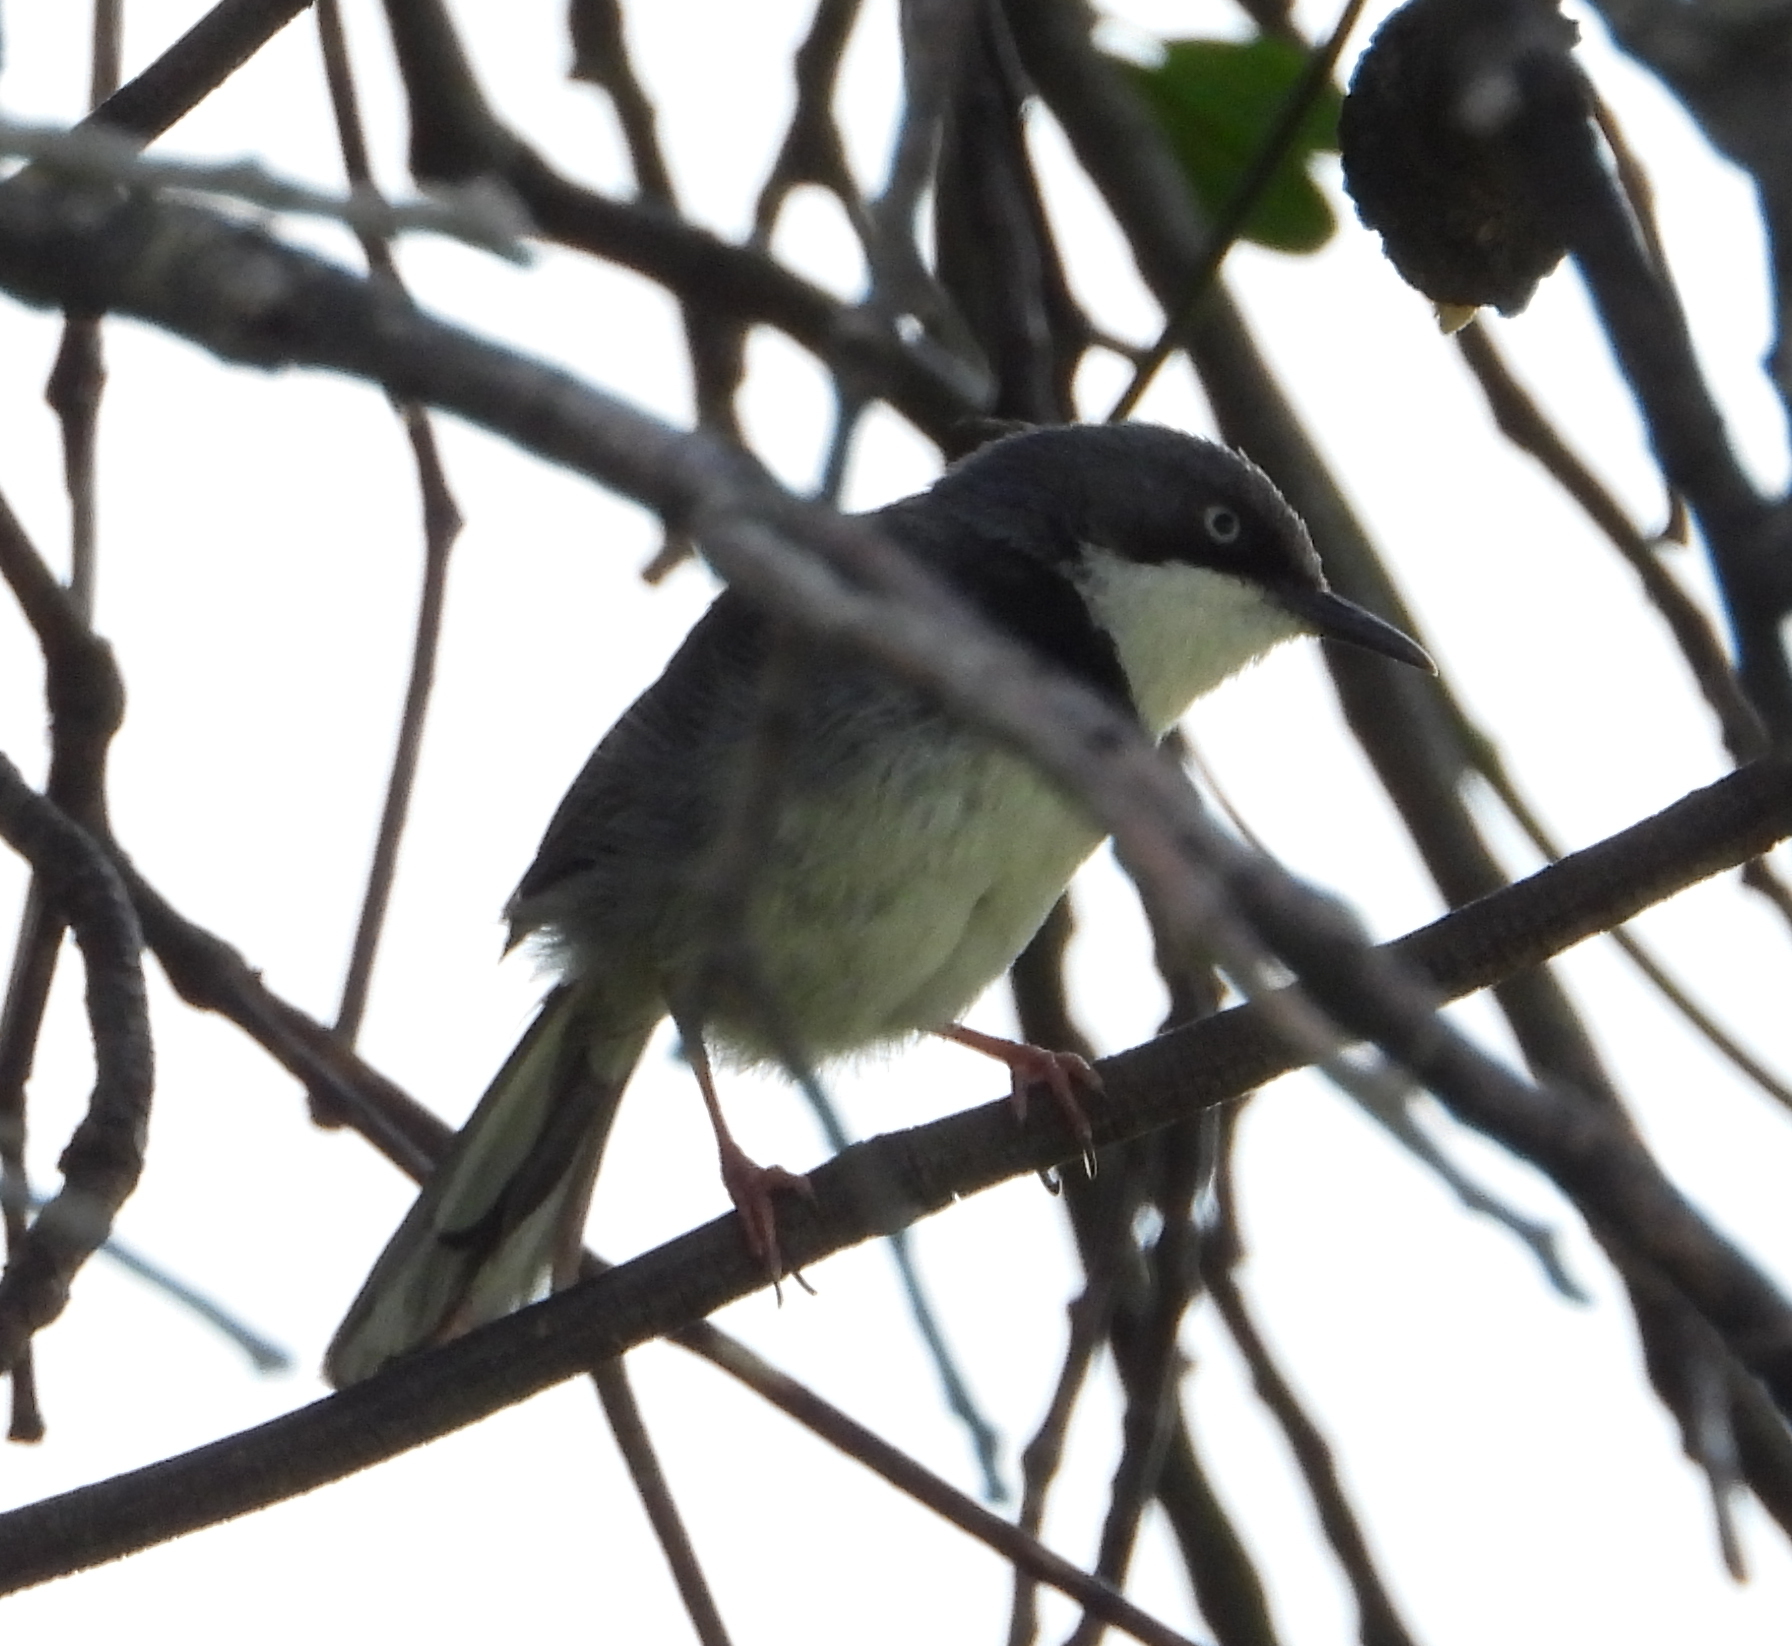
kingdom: Animalia
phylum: Chordata
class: Aves
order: Passeriformes
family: Cisticolidae
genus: Apalis
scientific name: Apalis thoracica
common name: Bar-throated apalis
